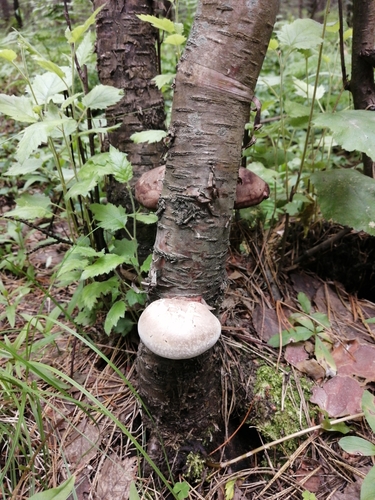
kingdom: Fungi
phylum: Basidiomycota
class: Agaricomycetes
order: Polyporales
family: Fomitopsidaceae
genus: Fomitopsis
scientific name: Fomitopsis betulina
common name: Birch polypore
